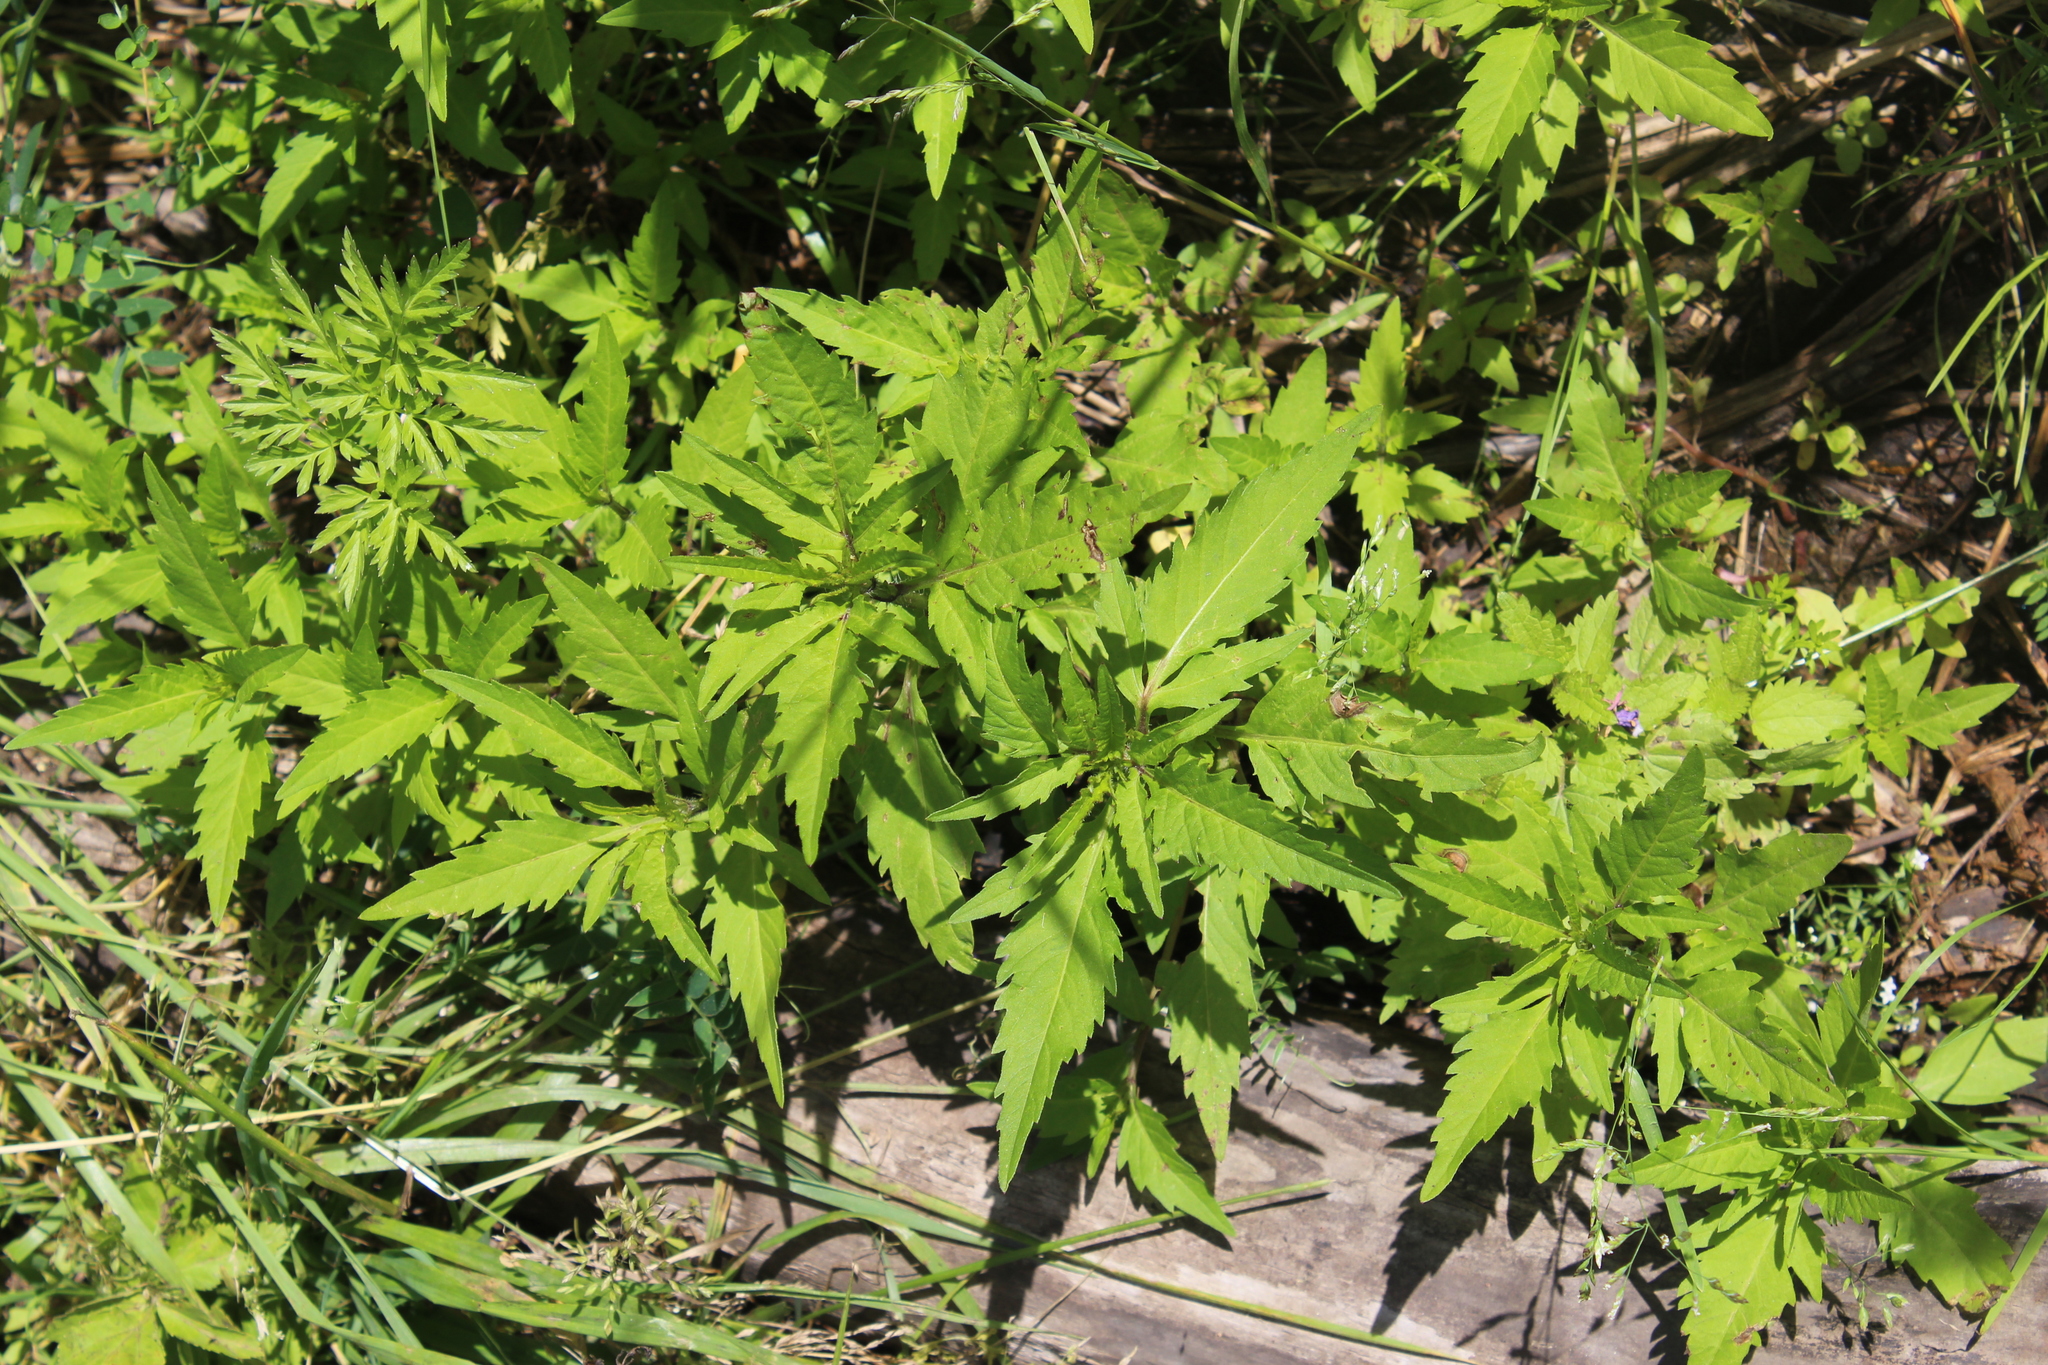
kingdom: Plantae
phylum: Tracheophyta
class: Magnoliopsida
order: Asterales
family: Asteraceae
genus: Bidens
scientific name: Bidens tripartita
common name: Trifid bur-marigold
